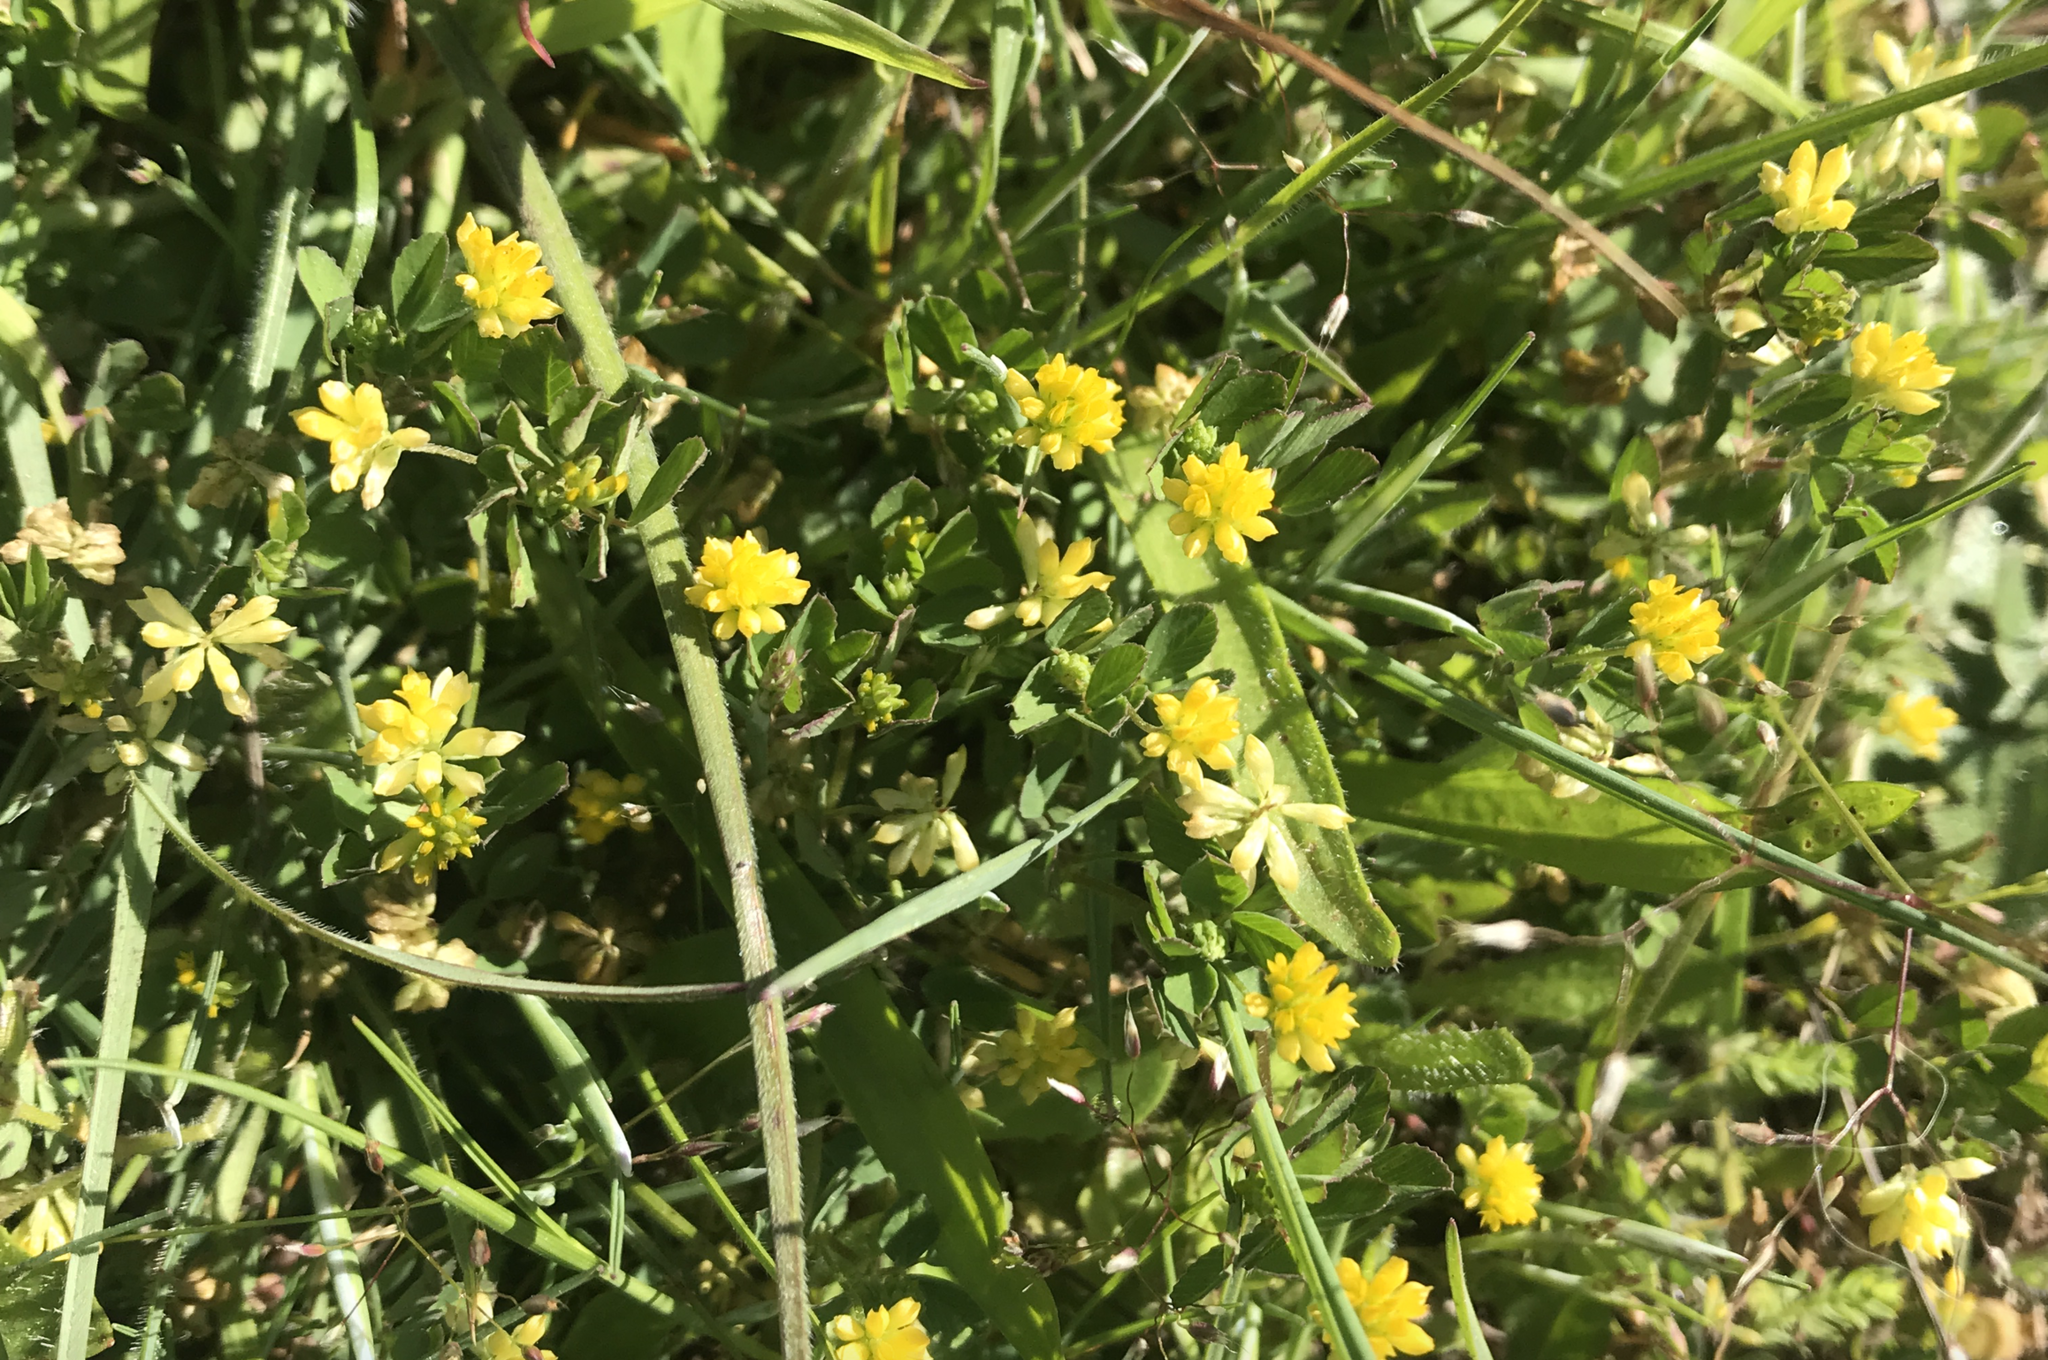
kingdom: Plantae
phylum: Tracheophyta
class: Magnoliopsida
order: Fabales
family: Fabaceae
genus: Trifolium
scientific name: Trifolium dubium
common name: Suckling clover
